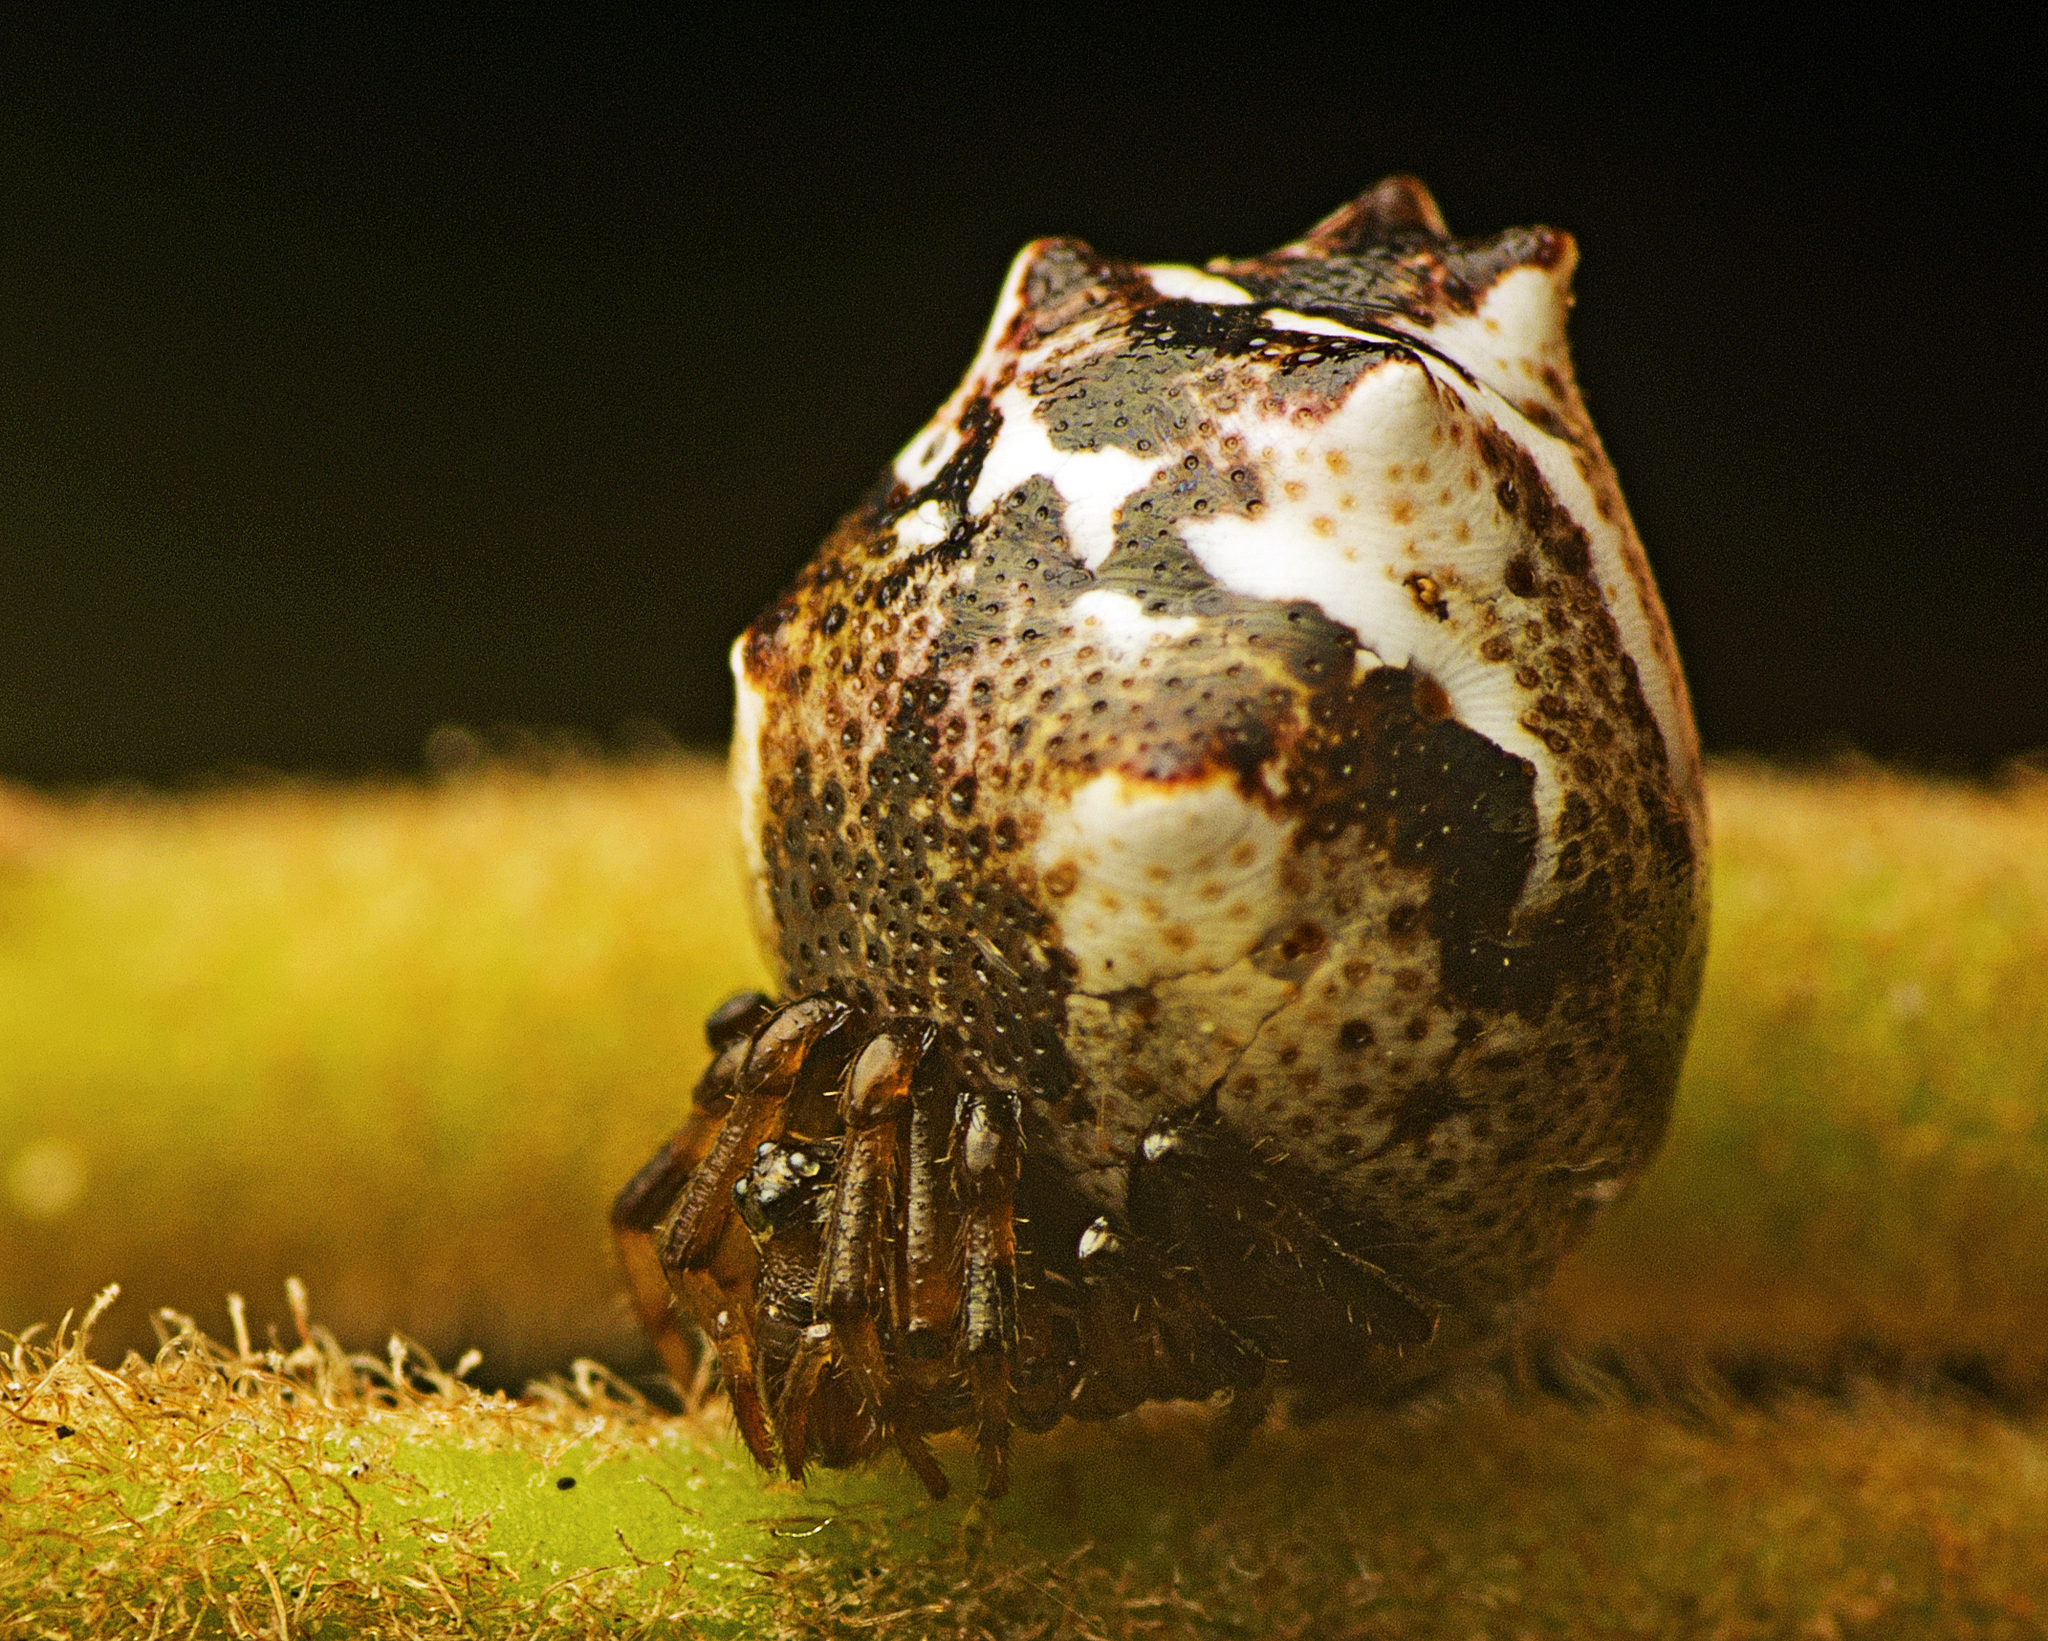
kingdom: Animalia
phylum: Arthropoda
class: Arachnida
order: Araneae
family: Theridiidae
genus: Phoroncidia
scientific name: Phoroncidia sextuberculata
